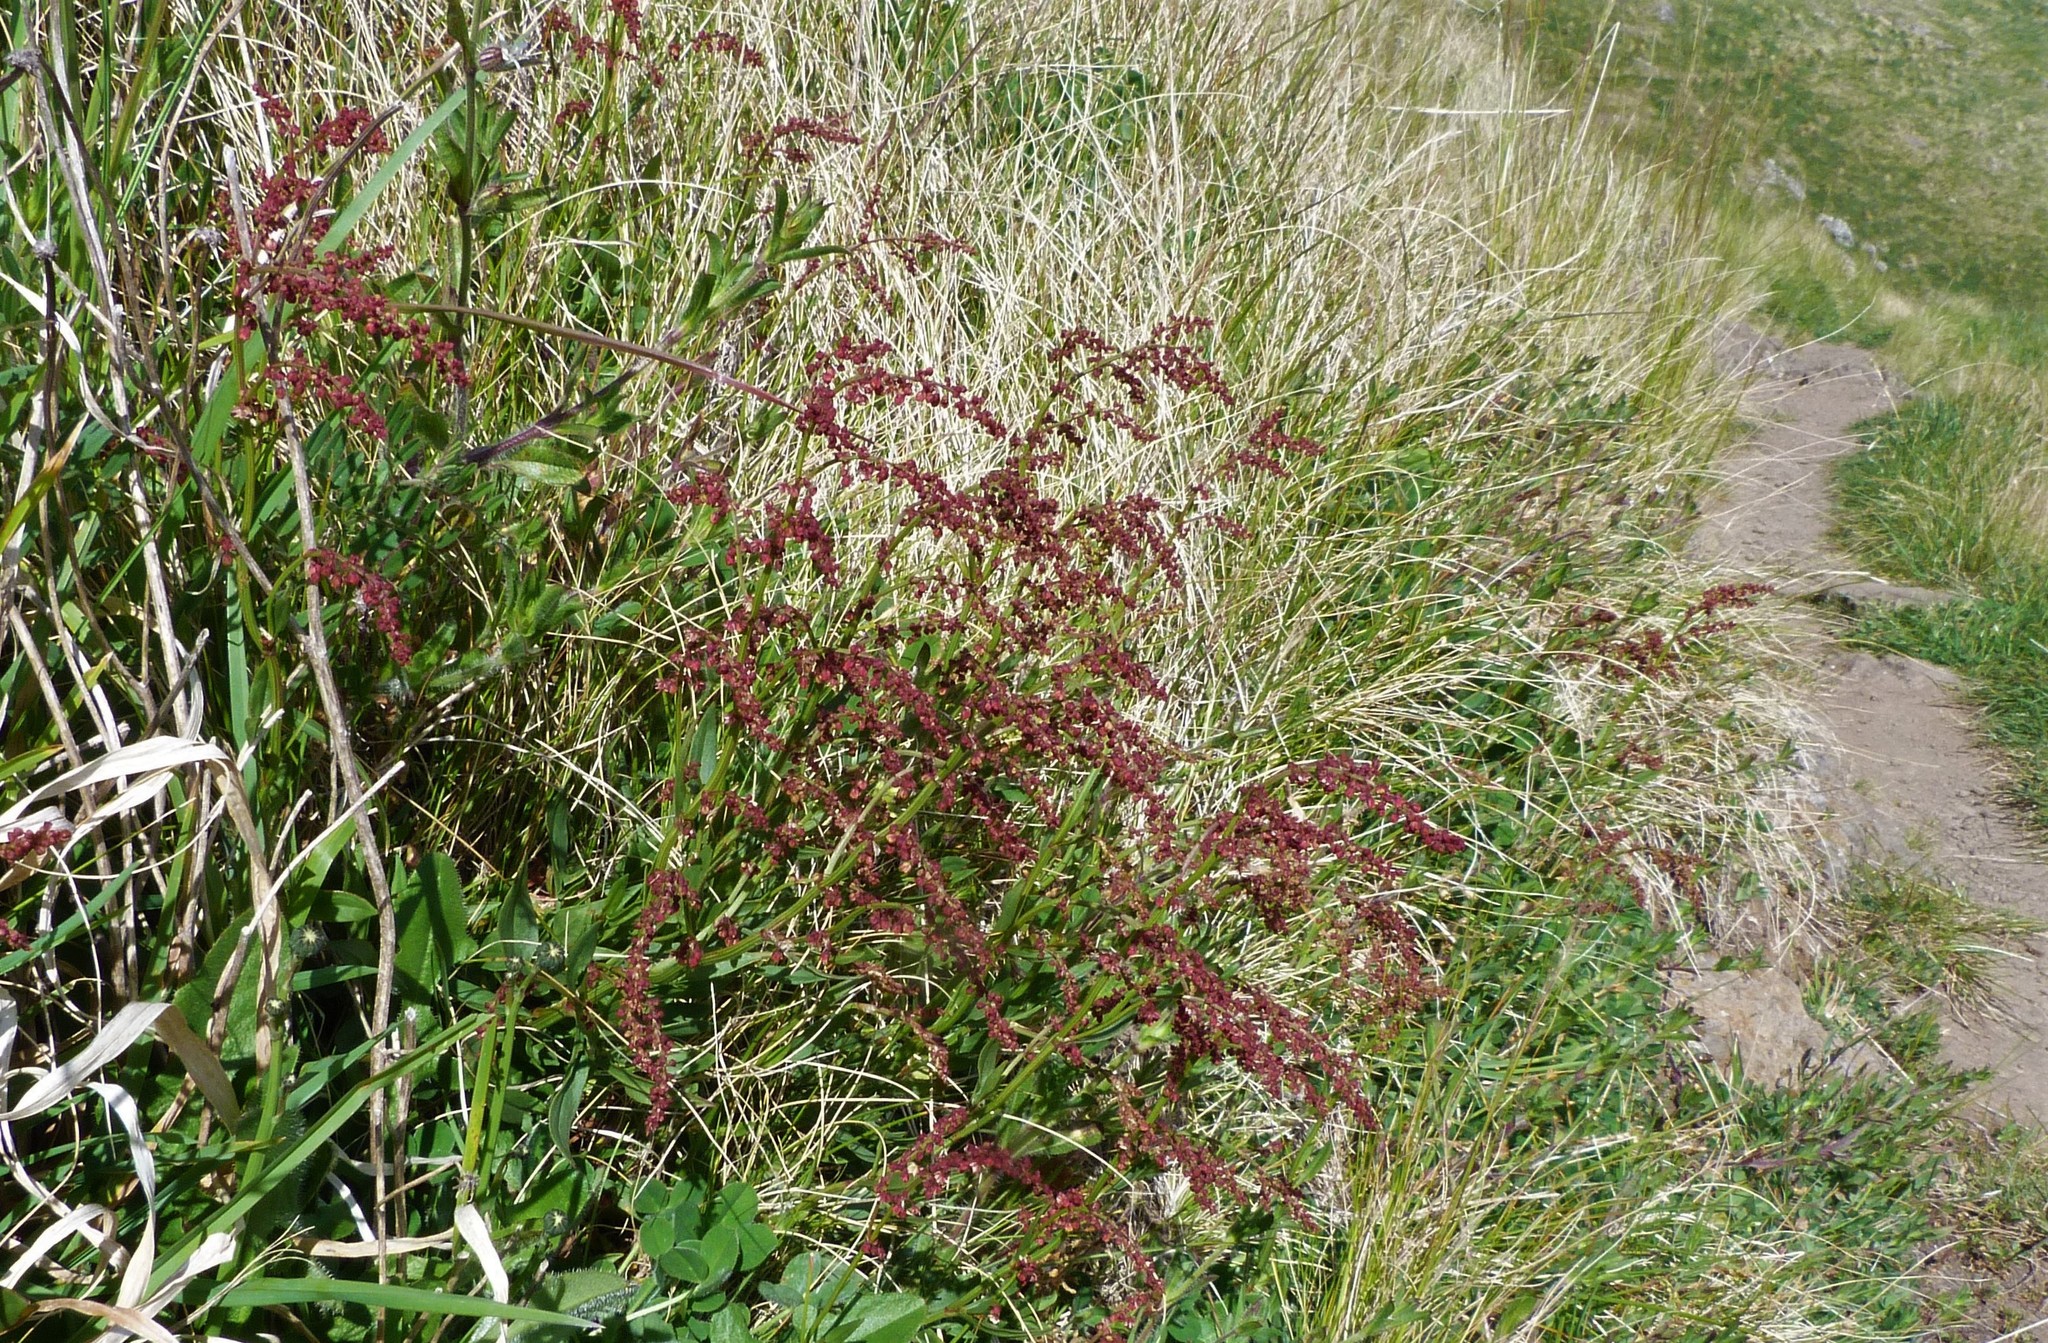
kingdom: Plantae
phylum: Tracheophyta
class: Magnoliopsida
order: Caryophyllales
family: Polygonaceae
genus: Rumex
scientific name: Rumex acetosella
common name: Common sheep sorrel
